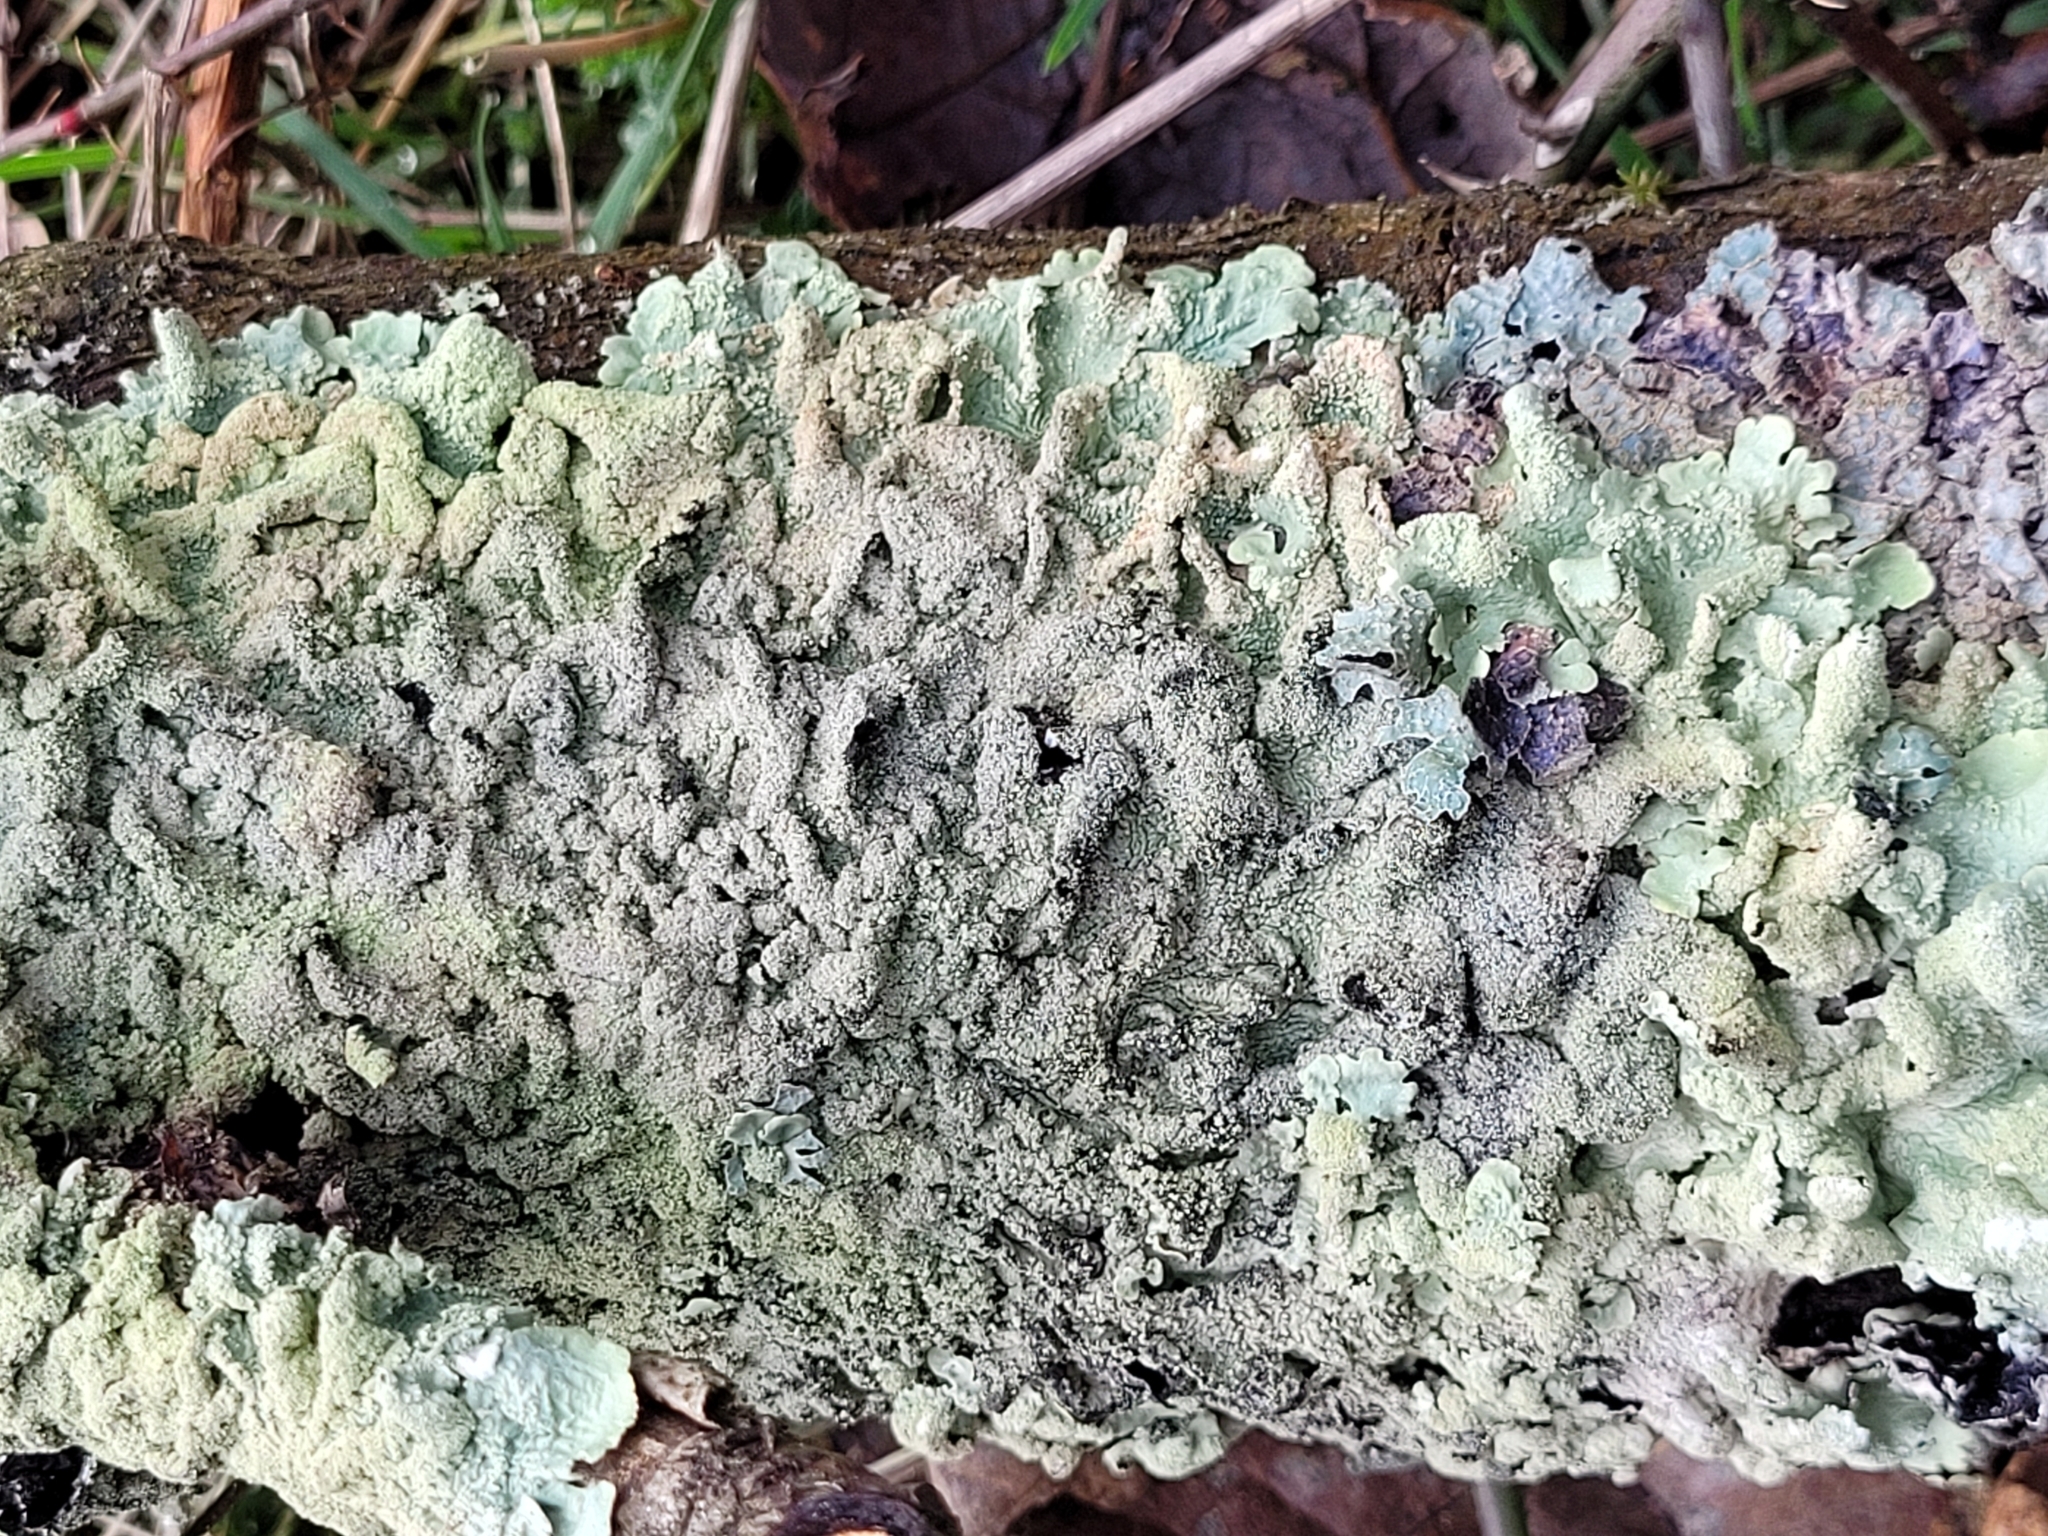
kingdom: Fungi
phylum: Ascomycota
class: Lecanoromycetes
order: Lecanorales
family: Parmeliaceae
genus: Flavoparmelia
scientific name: Flavoparmelia caperata
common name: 40-mile per hour lichen
